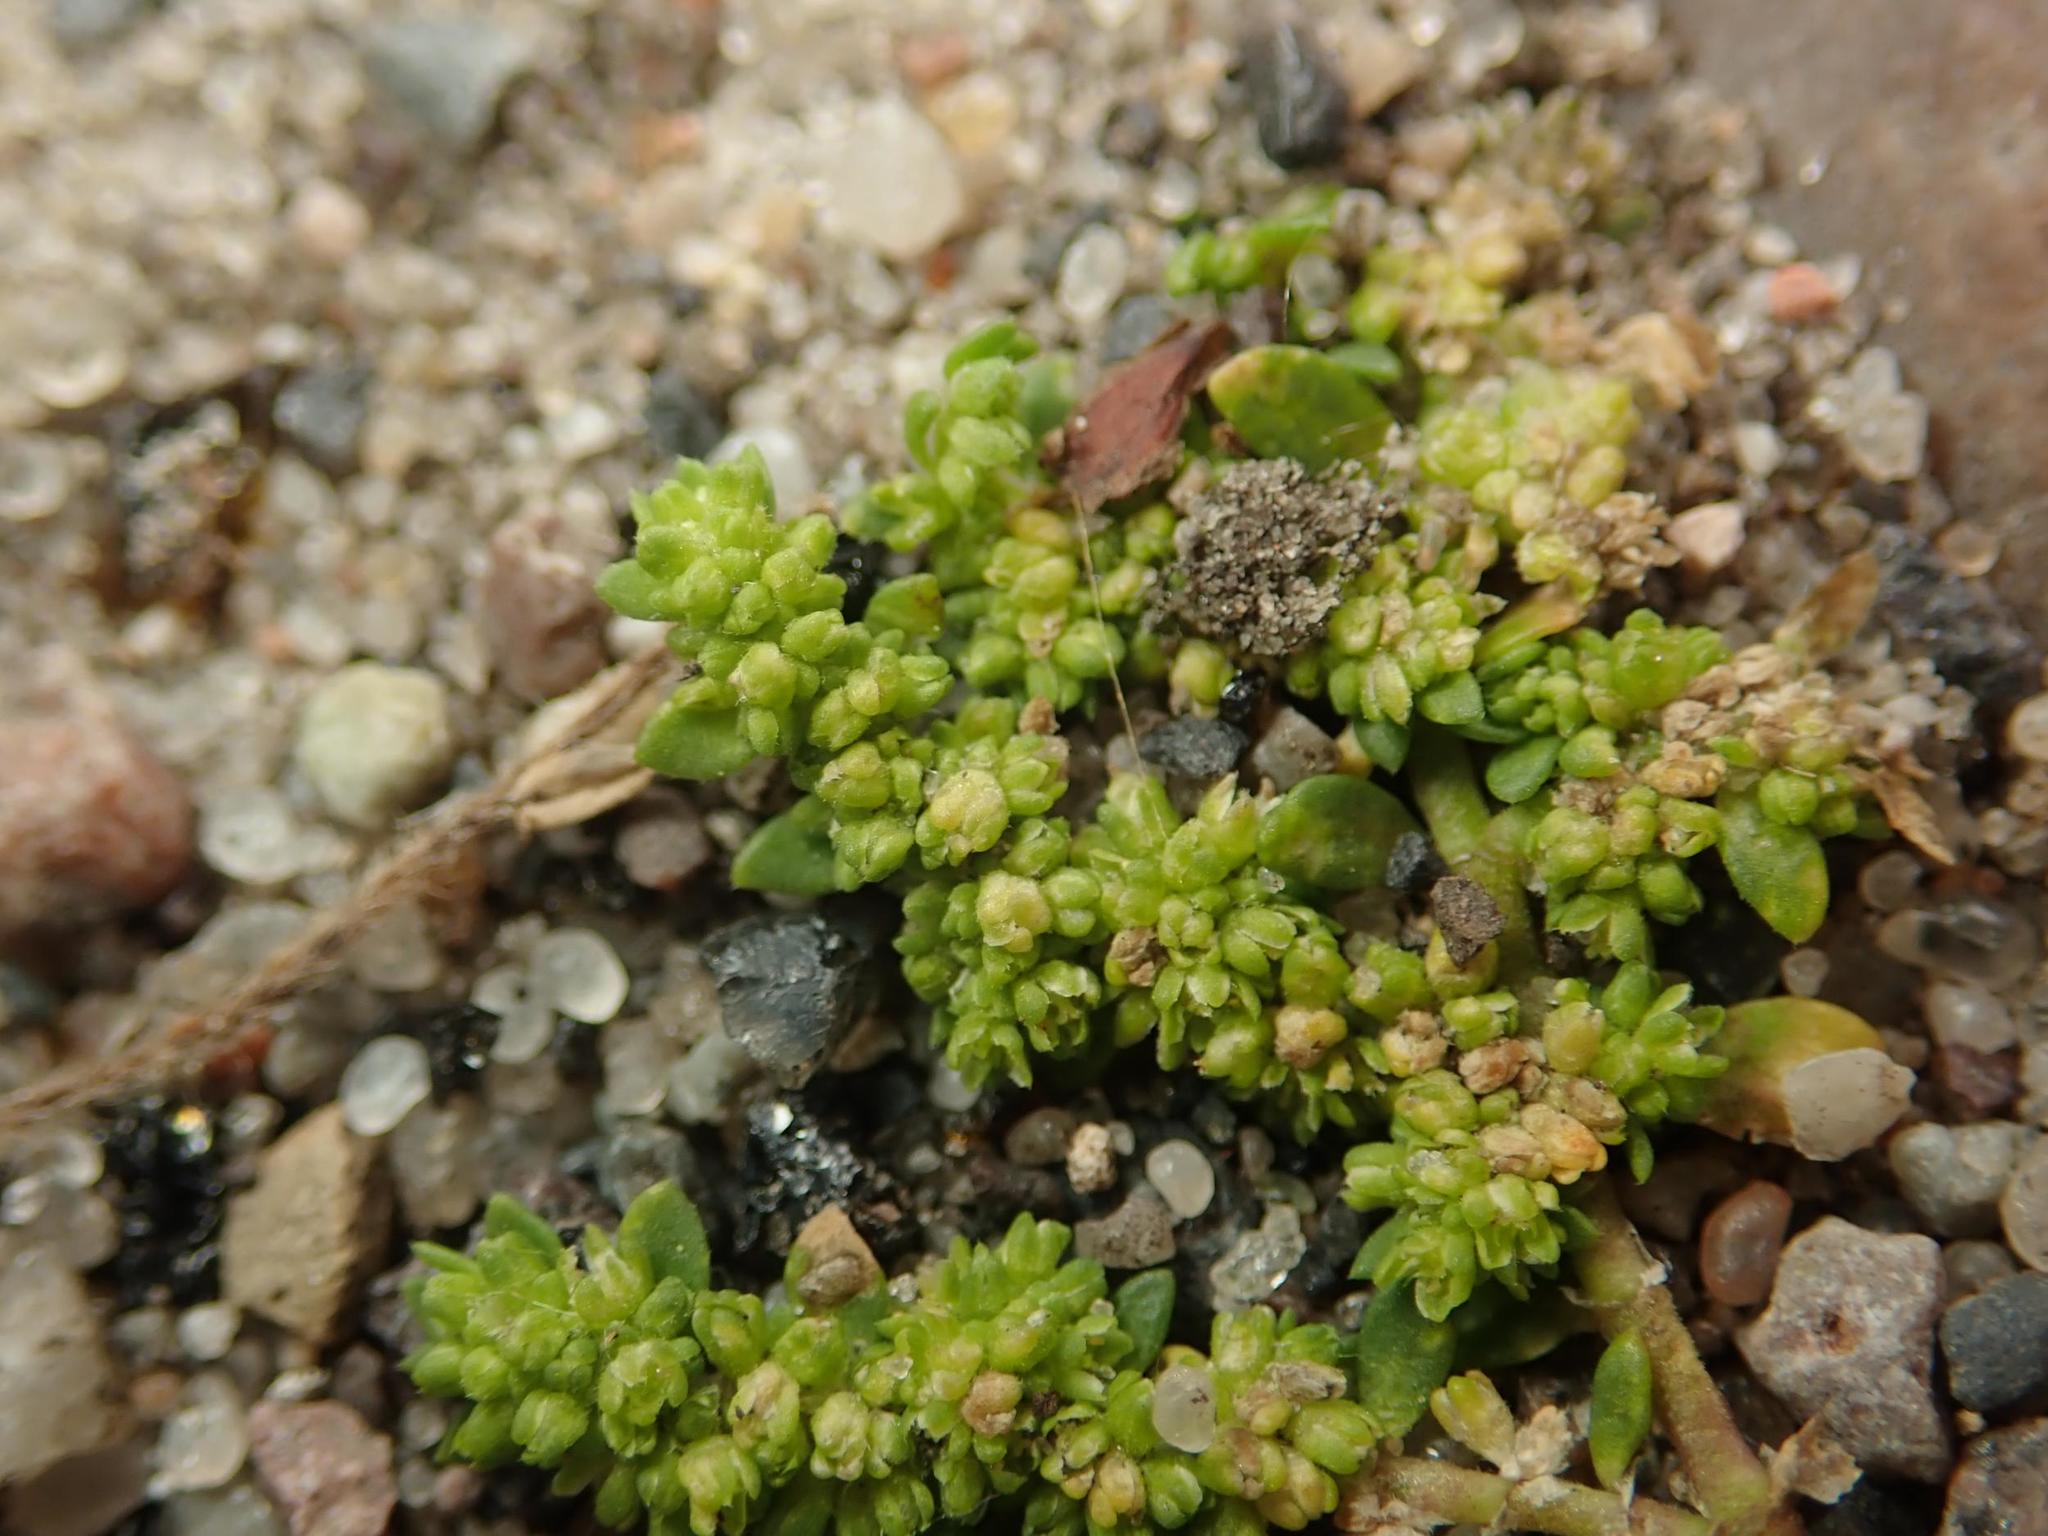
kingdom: Plantae
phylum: Tracheophyta
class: Magnoliopsida
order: Caryophyllales
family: Caryophyllaceae
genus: Herniaria
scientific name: Herniaria glabra
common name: Smooth rupturewort
